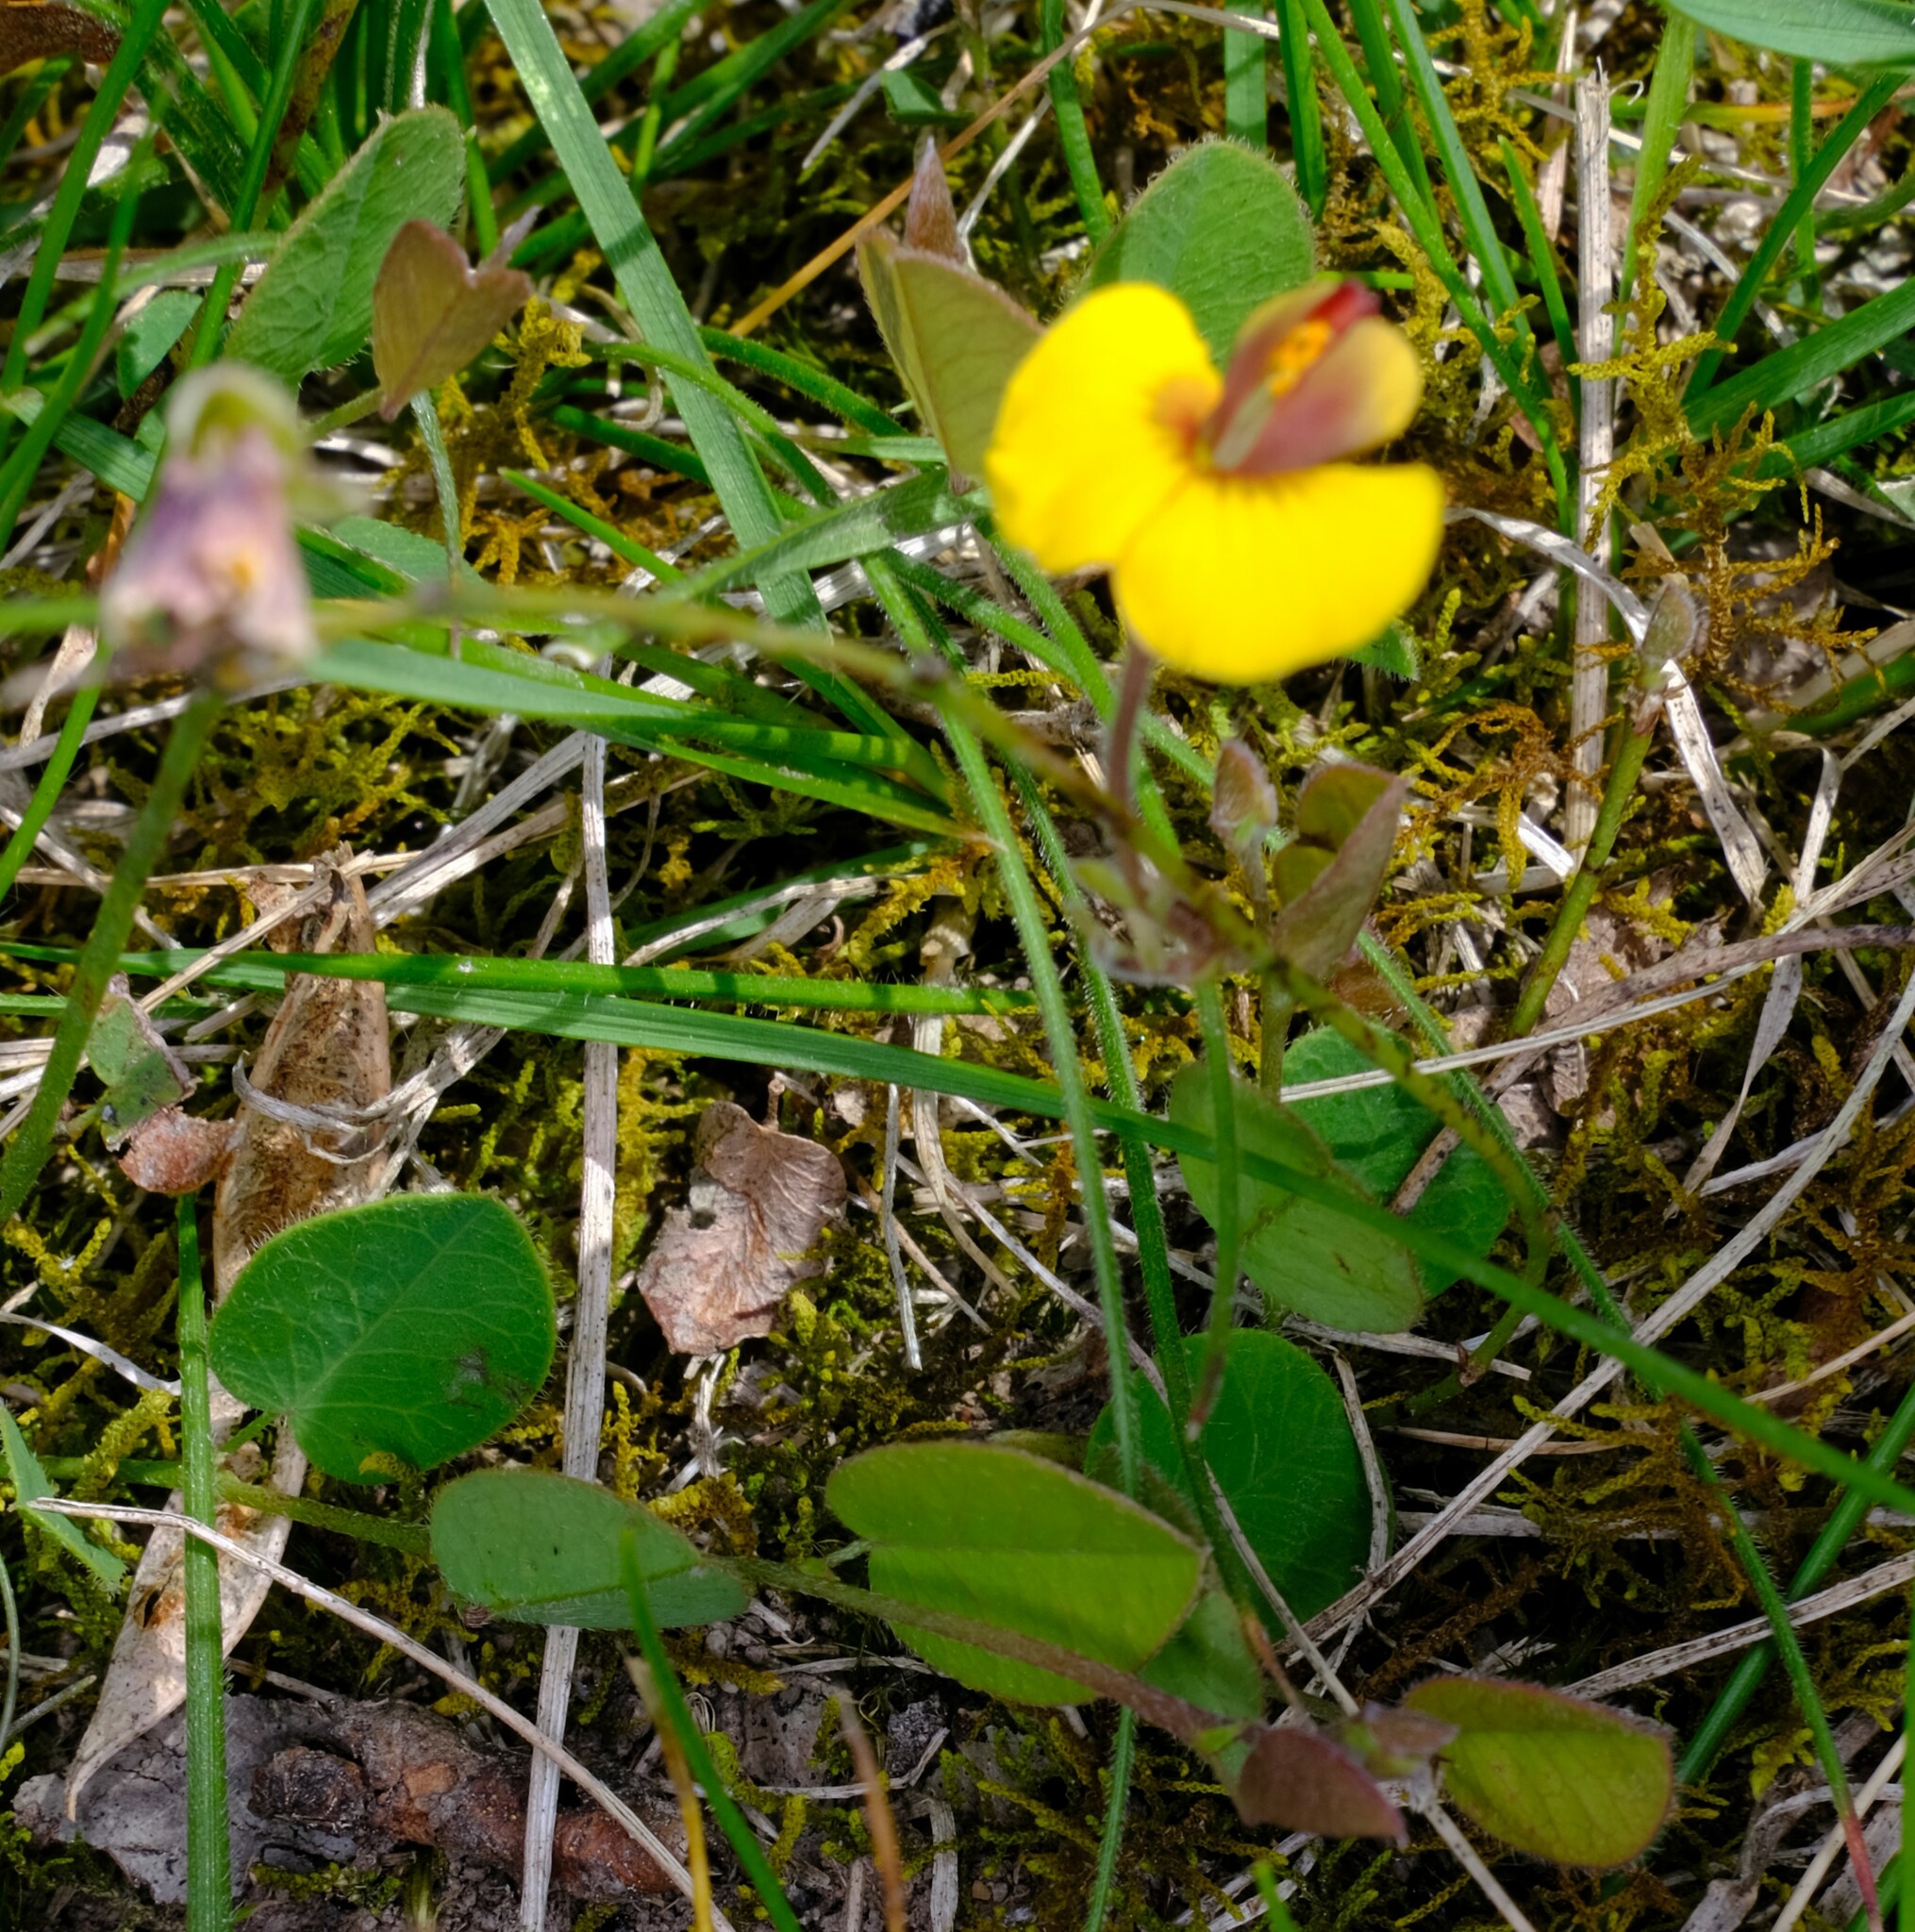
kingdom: Plantae
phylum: Tracheophyta
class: Magnoliopsida
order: Fabales
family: Fabaceae
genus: Bossiaea
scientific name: Bossiaea prostrata
